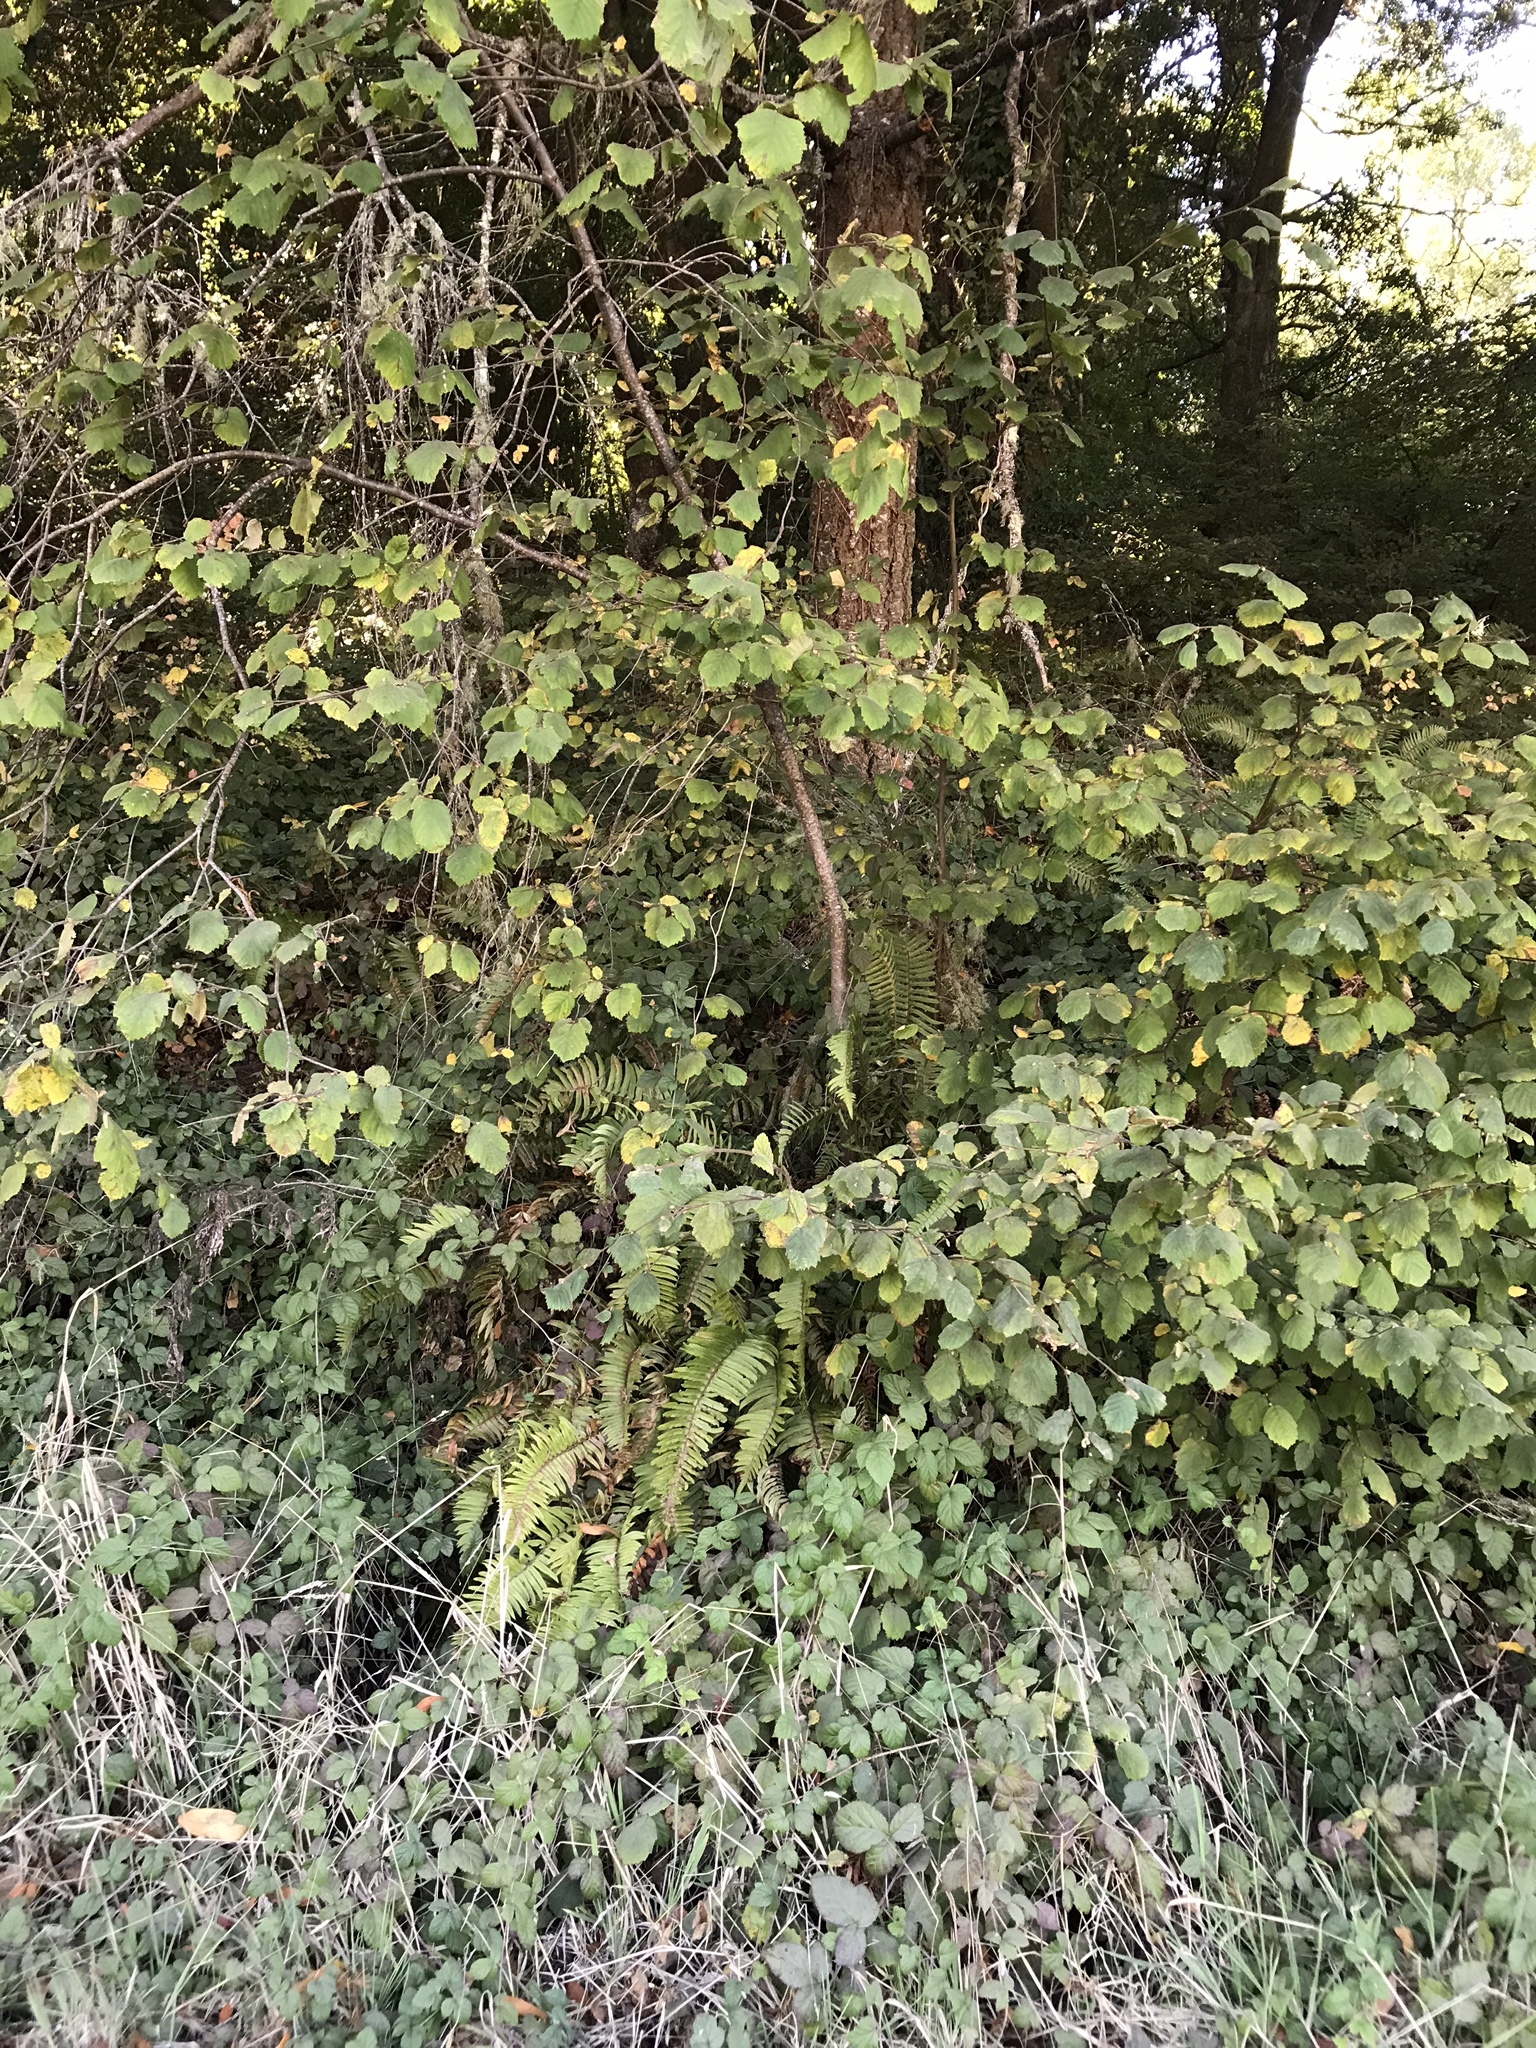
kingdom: Plantae
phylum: Tracheophyta
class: Magnoliopsida
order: Fagales
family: Betulaceae
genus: Corylus
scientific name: Corylus cornuta
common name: Beaked hazel
